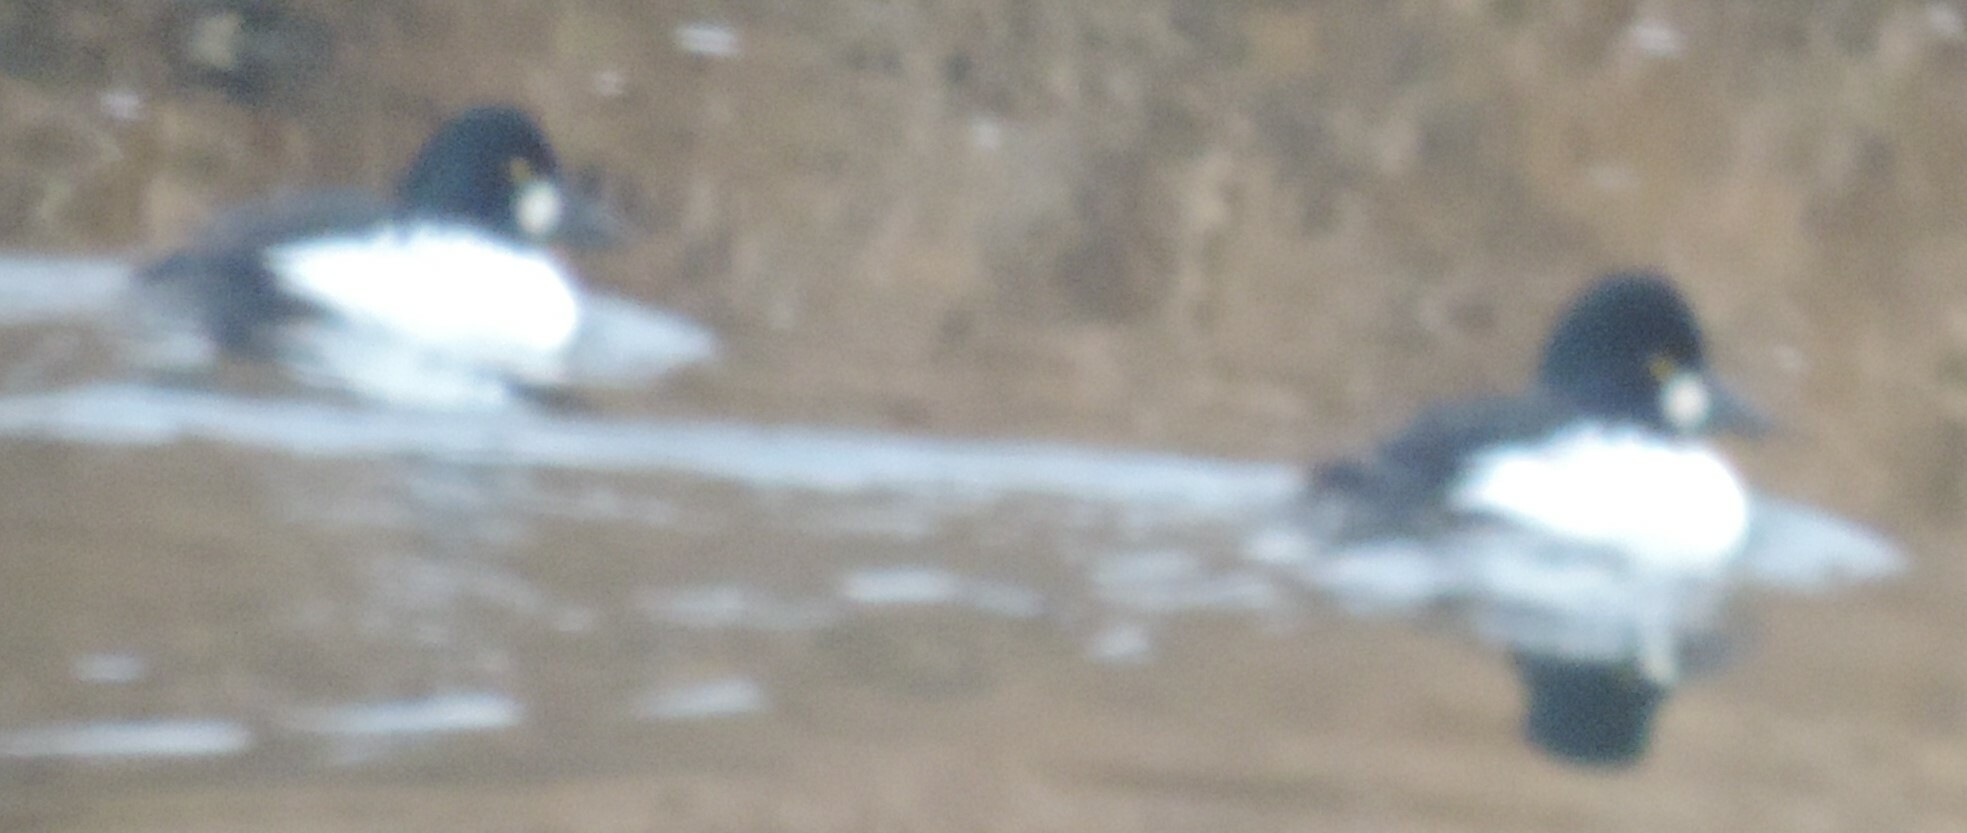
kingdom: Animalia
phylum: Chordata
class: Aves
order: Anseriformes
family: Anatidae
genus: Bucephala
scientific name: Bucephala clangula
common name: Common goldeneye
